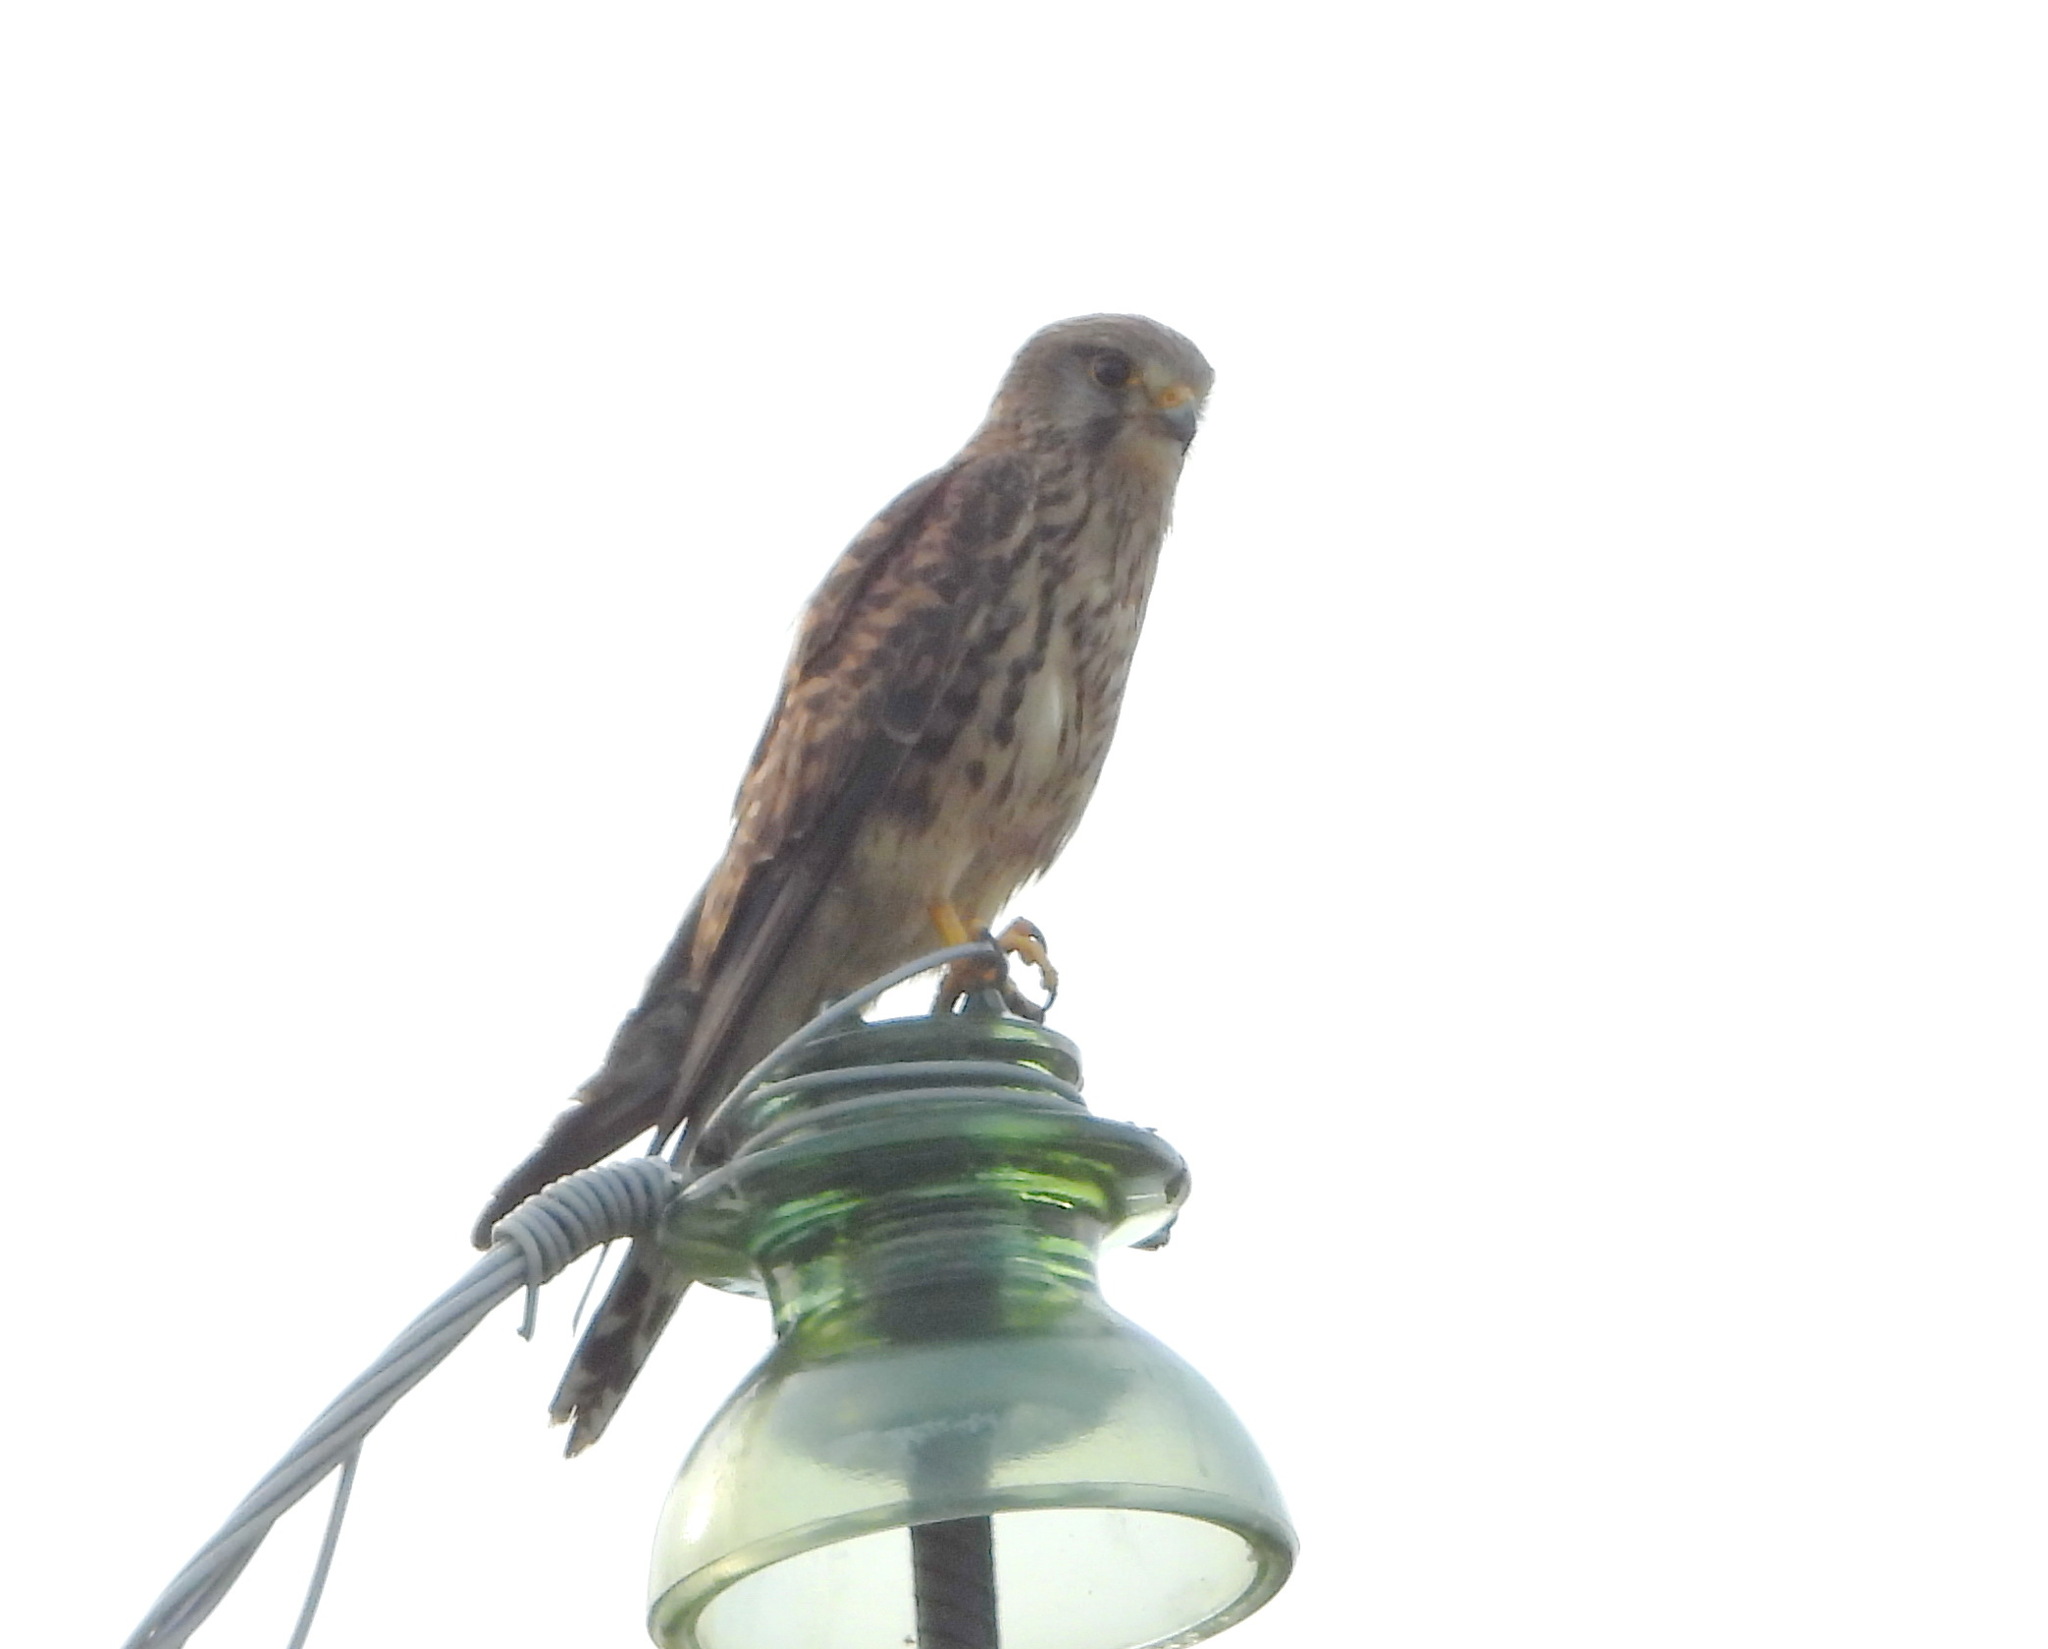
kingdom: Animalia
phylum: Chordata
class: Aves
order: Falconiformes
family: Falconidae
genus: Falco
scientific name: Falco tinnunculus
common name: Common kestrel
